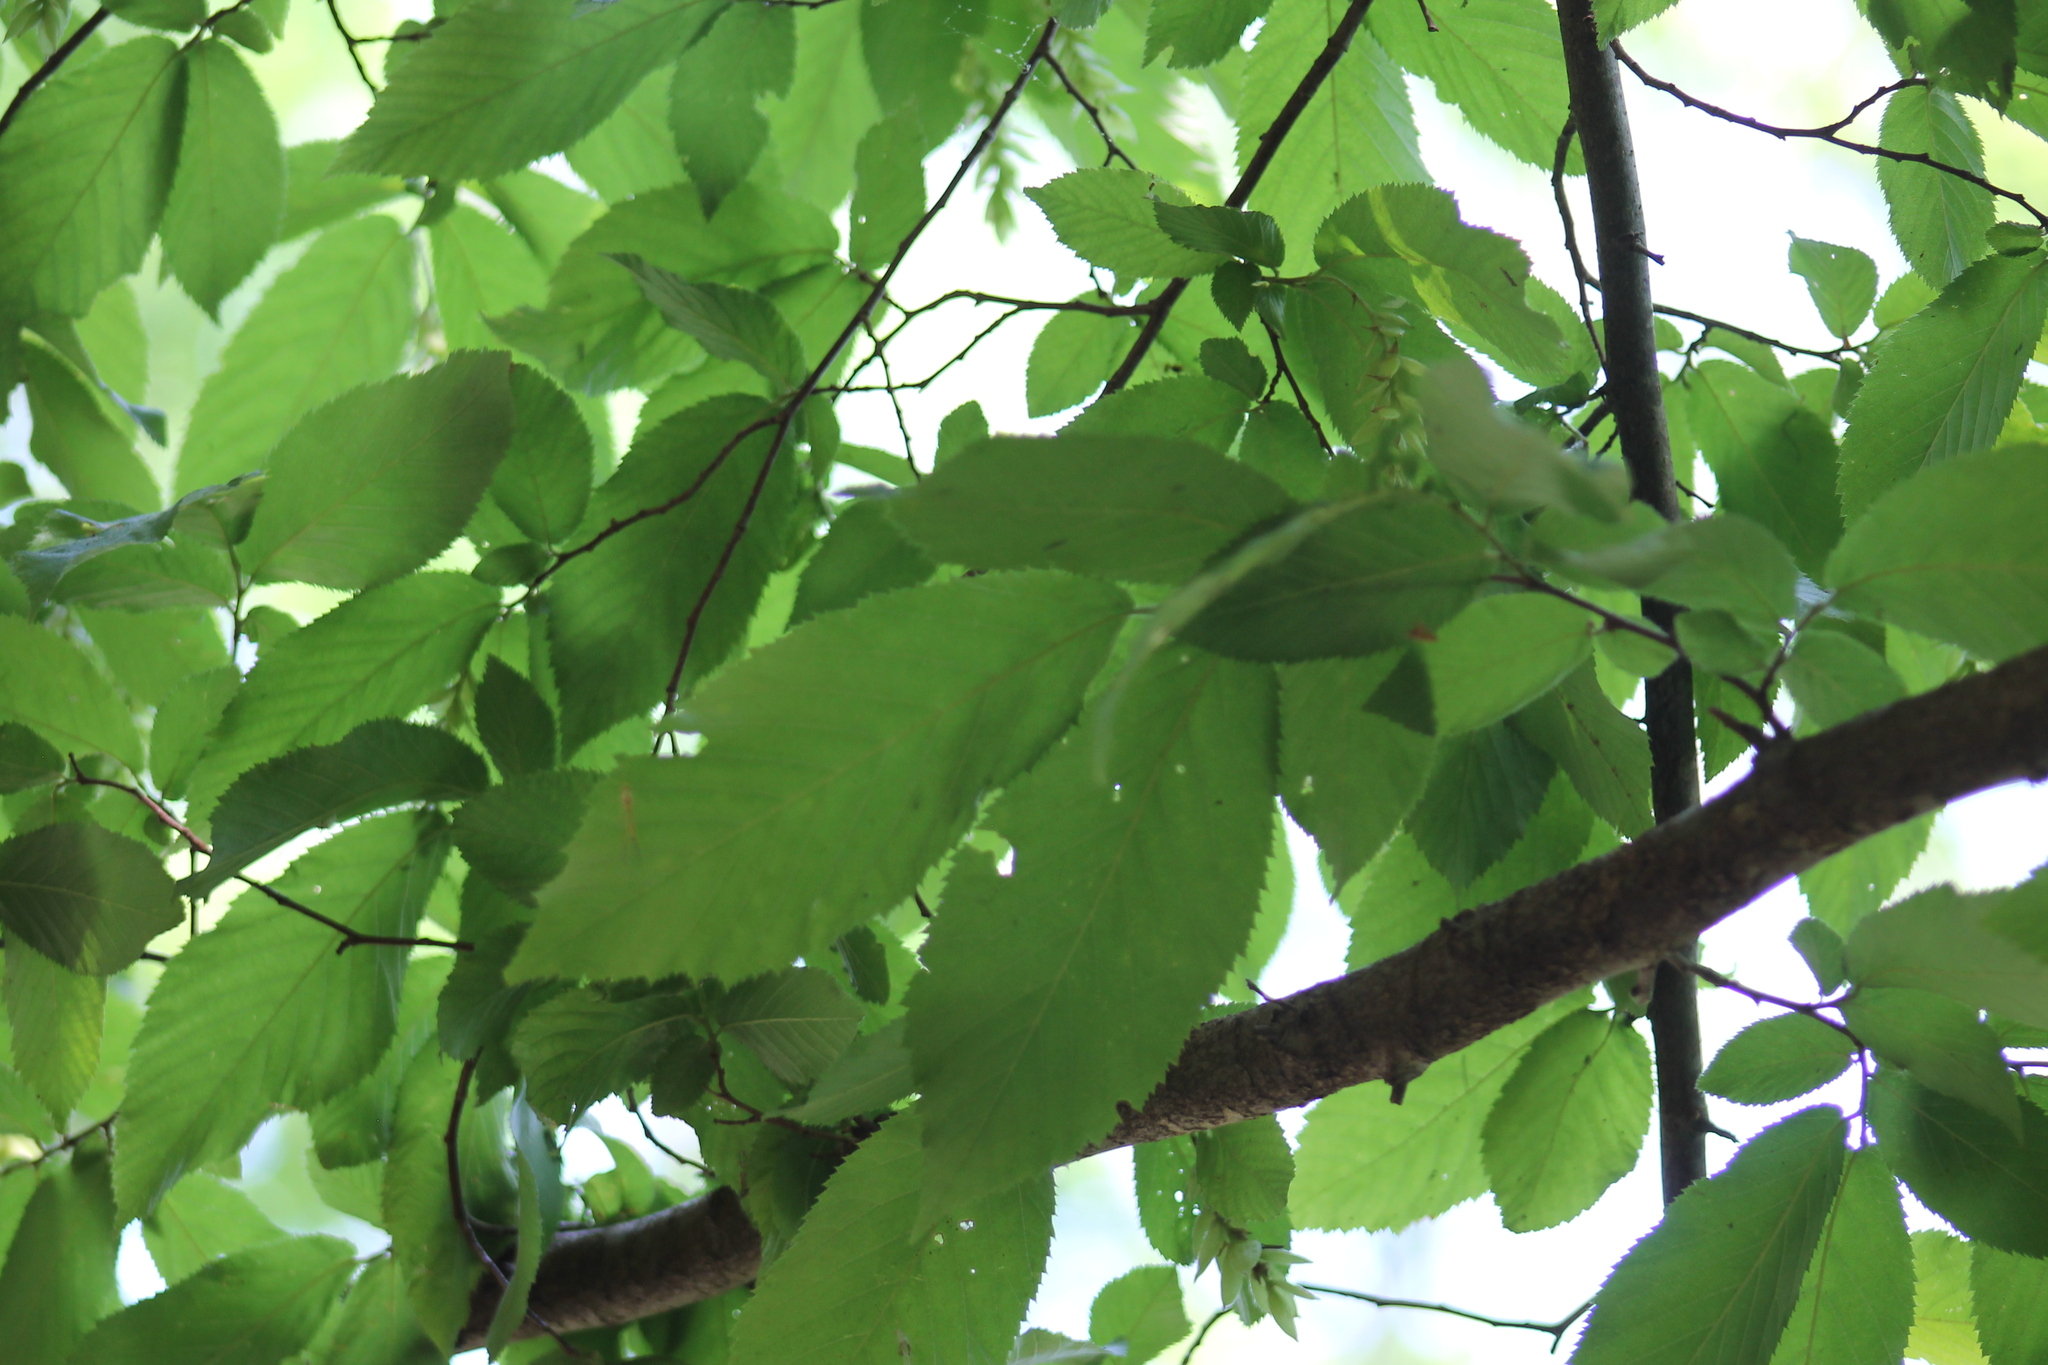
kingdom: Plantae
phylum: Tracheophyta
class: Magnoliopsida
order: Fagales
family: Betulaceae
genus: Ostrya
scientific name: Ostrya virginiana
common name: Ironwood
